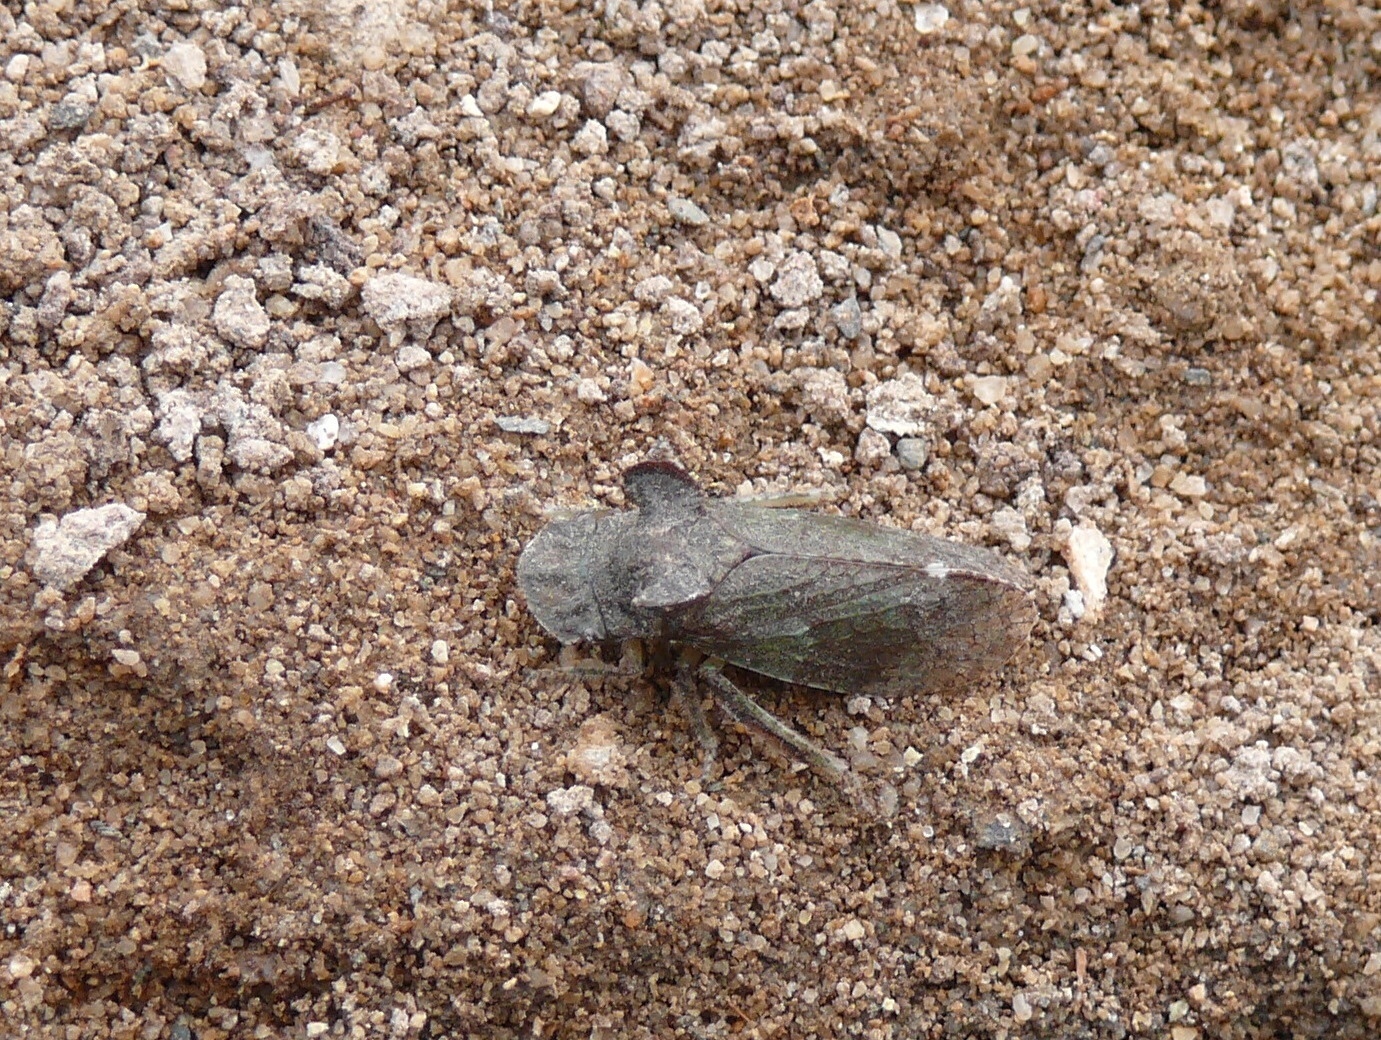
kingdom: Animalia
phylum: Arthropoda
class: Insecta
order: Hemiptera
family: Cicadellidae
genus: Ledra
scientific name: Ledra aurita
